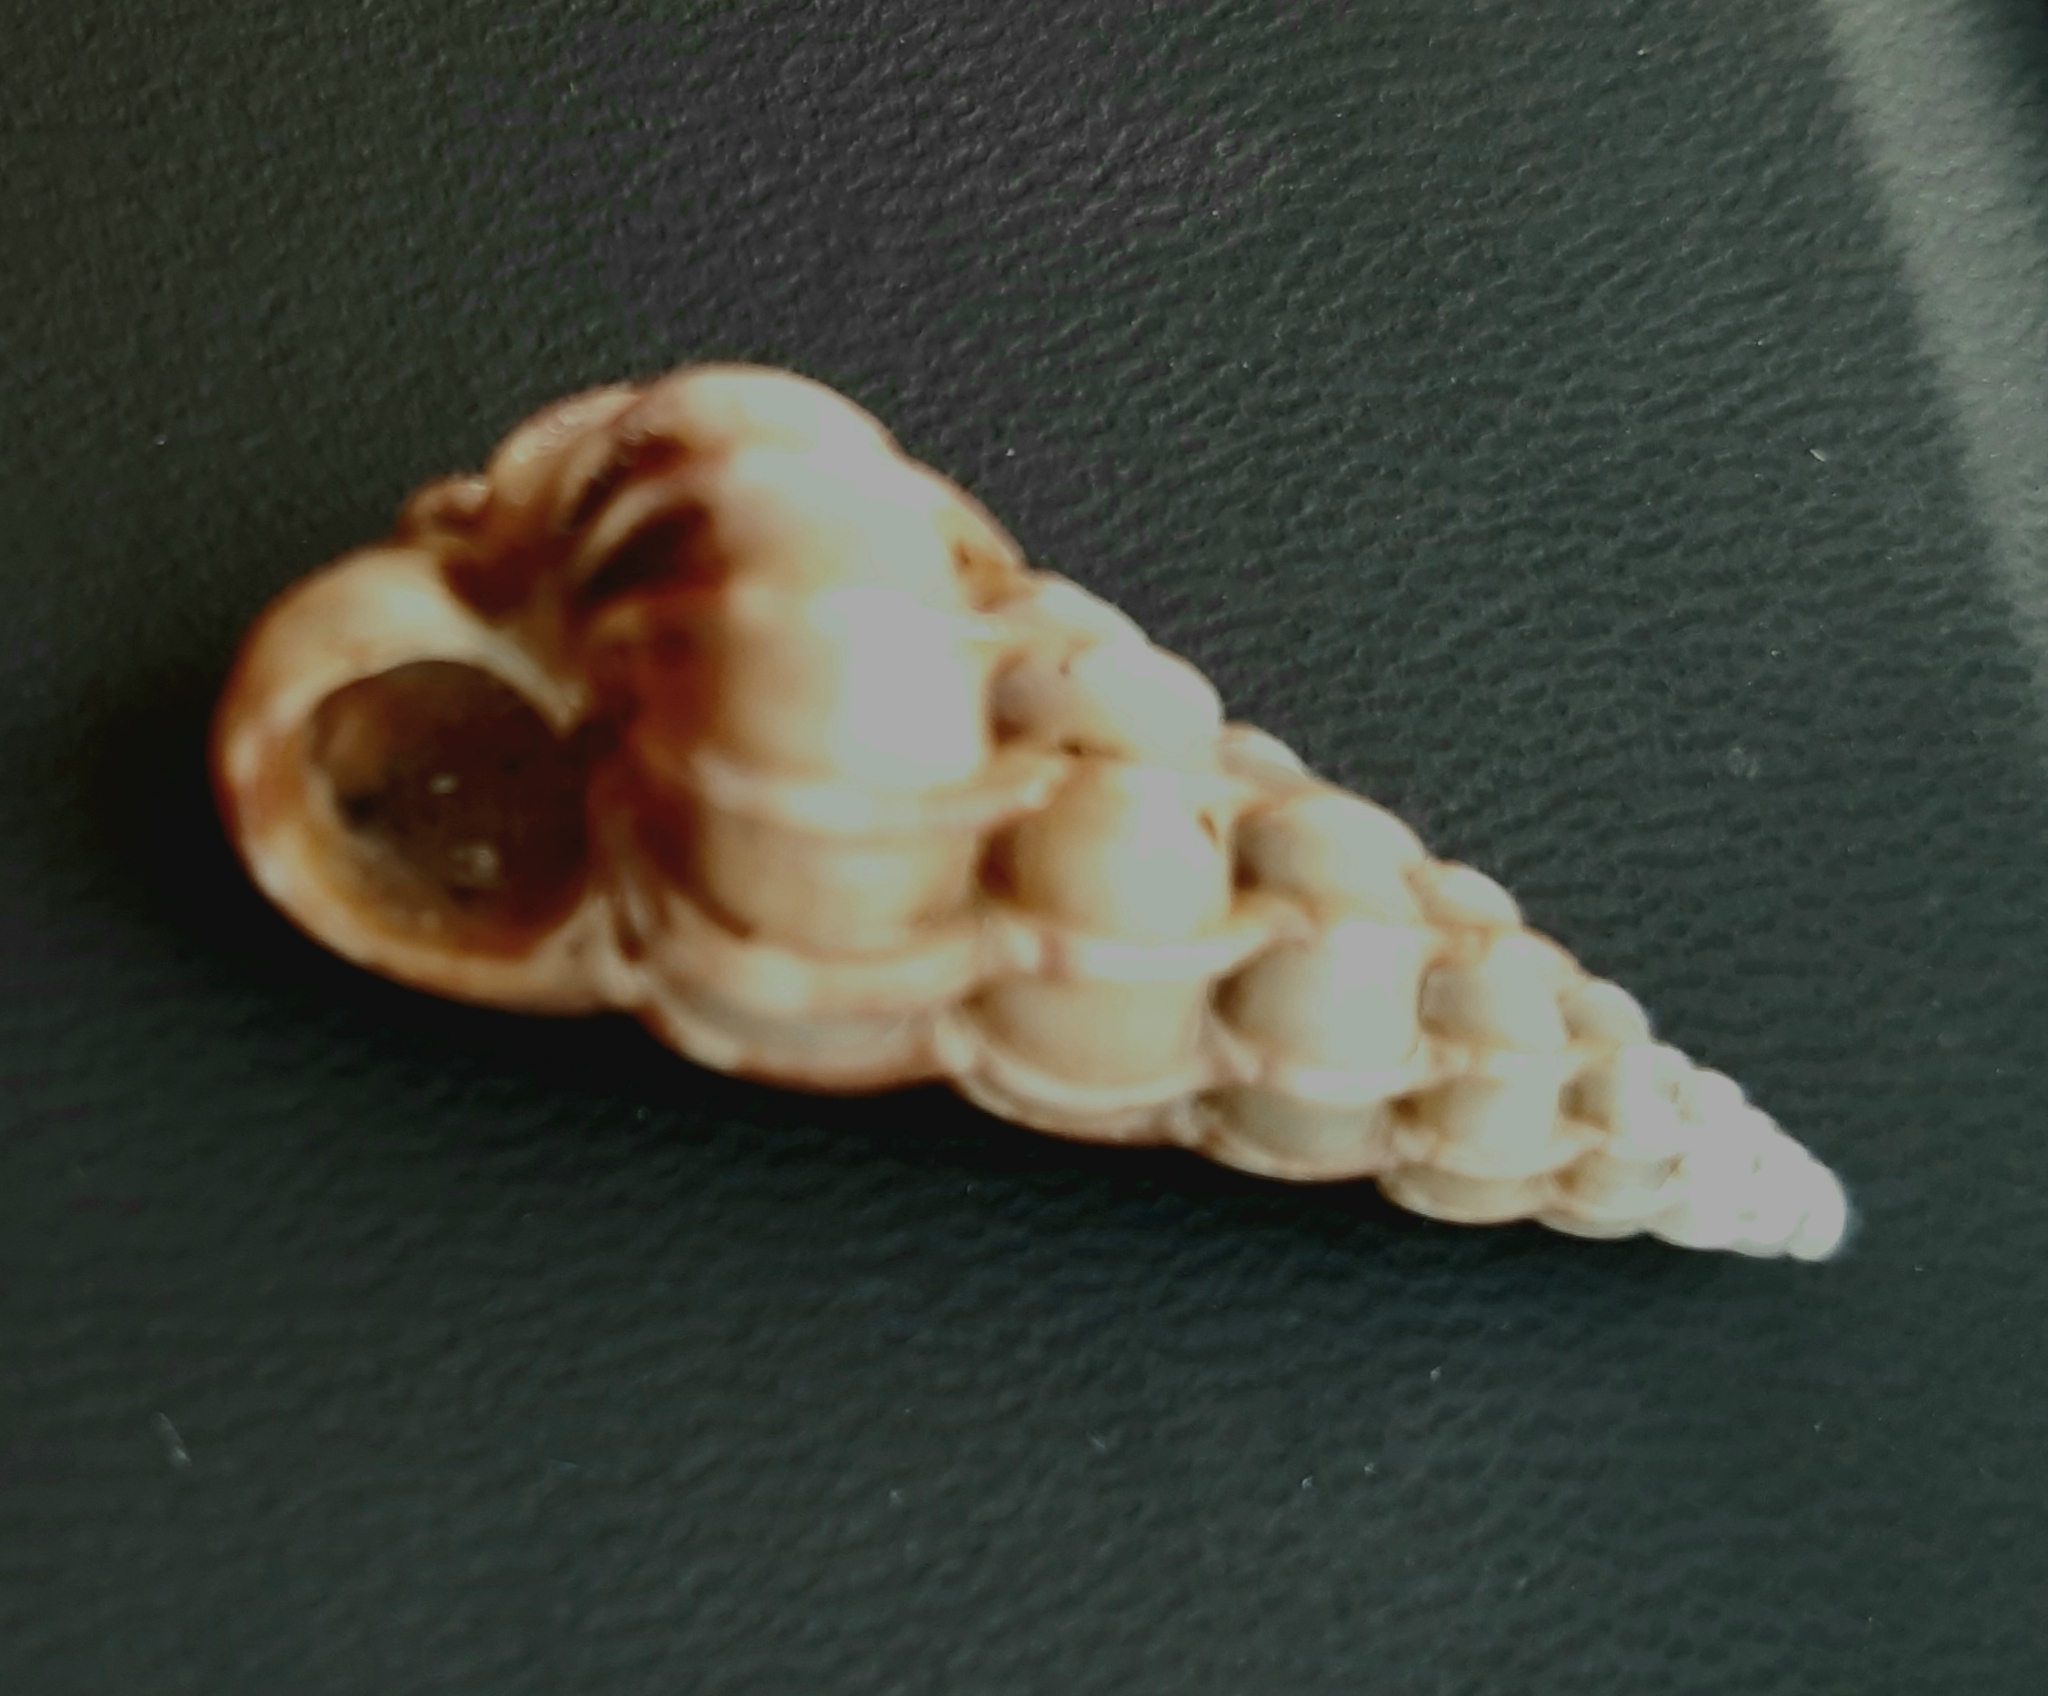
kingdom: Animalia
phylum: Mollusca
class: Gastropoda
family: Epitoniidae
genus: Epitonium
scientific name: Epitonium clathrus
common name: Common wentletrap
